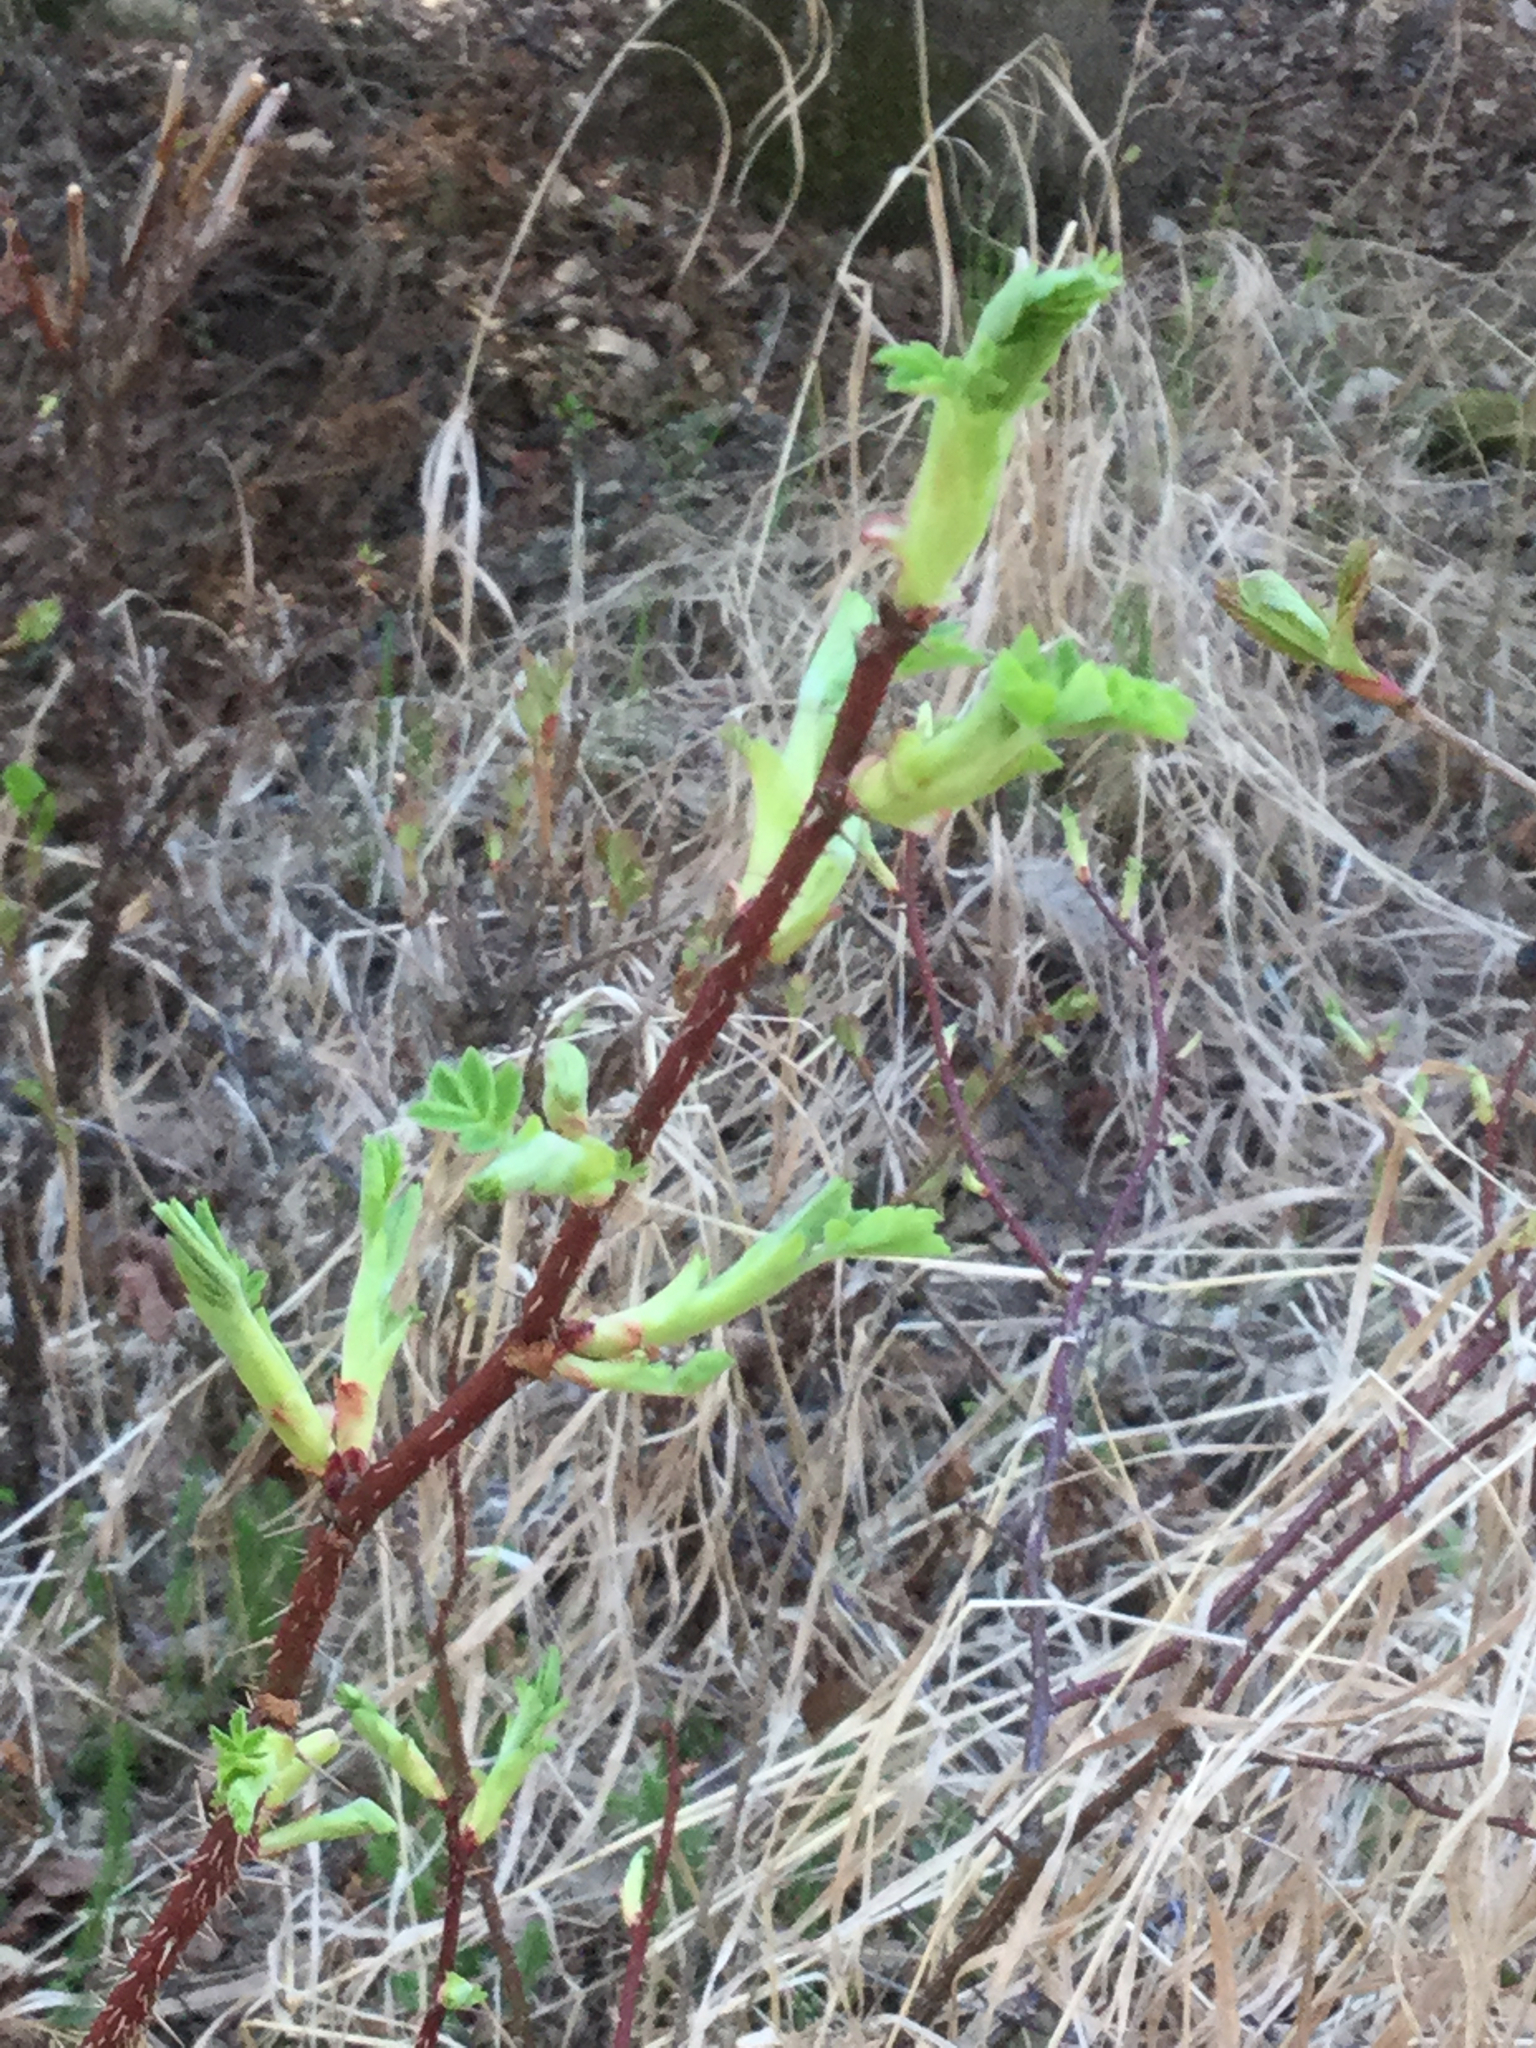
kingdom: Plantae
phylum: Tracheophyta
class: Magnoliopsida
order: Rosales
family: Rosaceae
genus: Rosa
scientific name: Rosa acicularis
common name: Prickly rose
